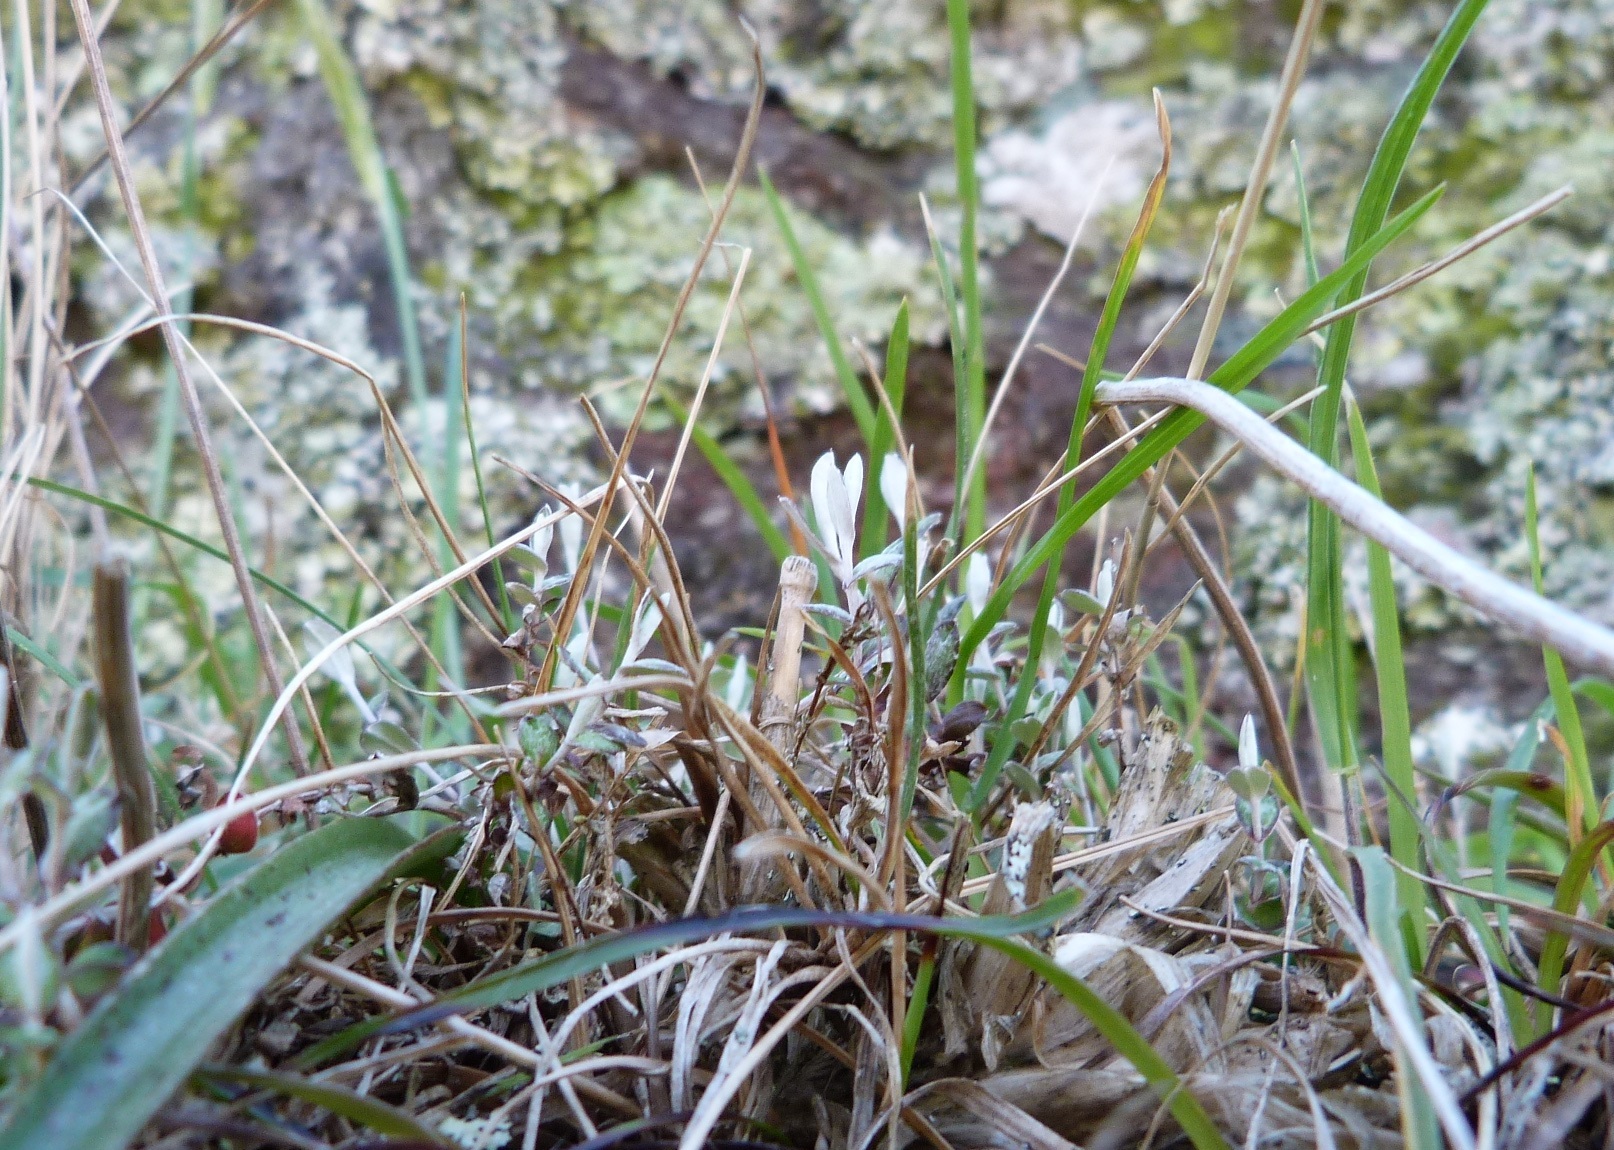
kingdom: Plantae
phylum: Tracheophyta
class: Magnoliopsida
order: Asterales
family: Asteraceae
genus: Helichrysum
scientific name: Helichrysum filicaule
